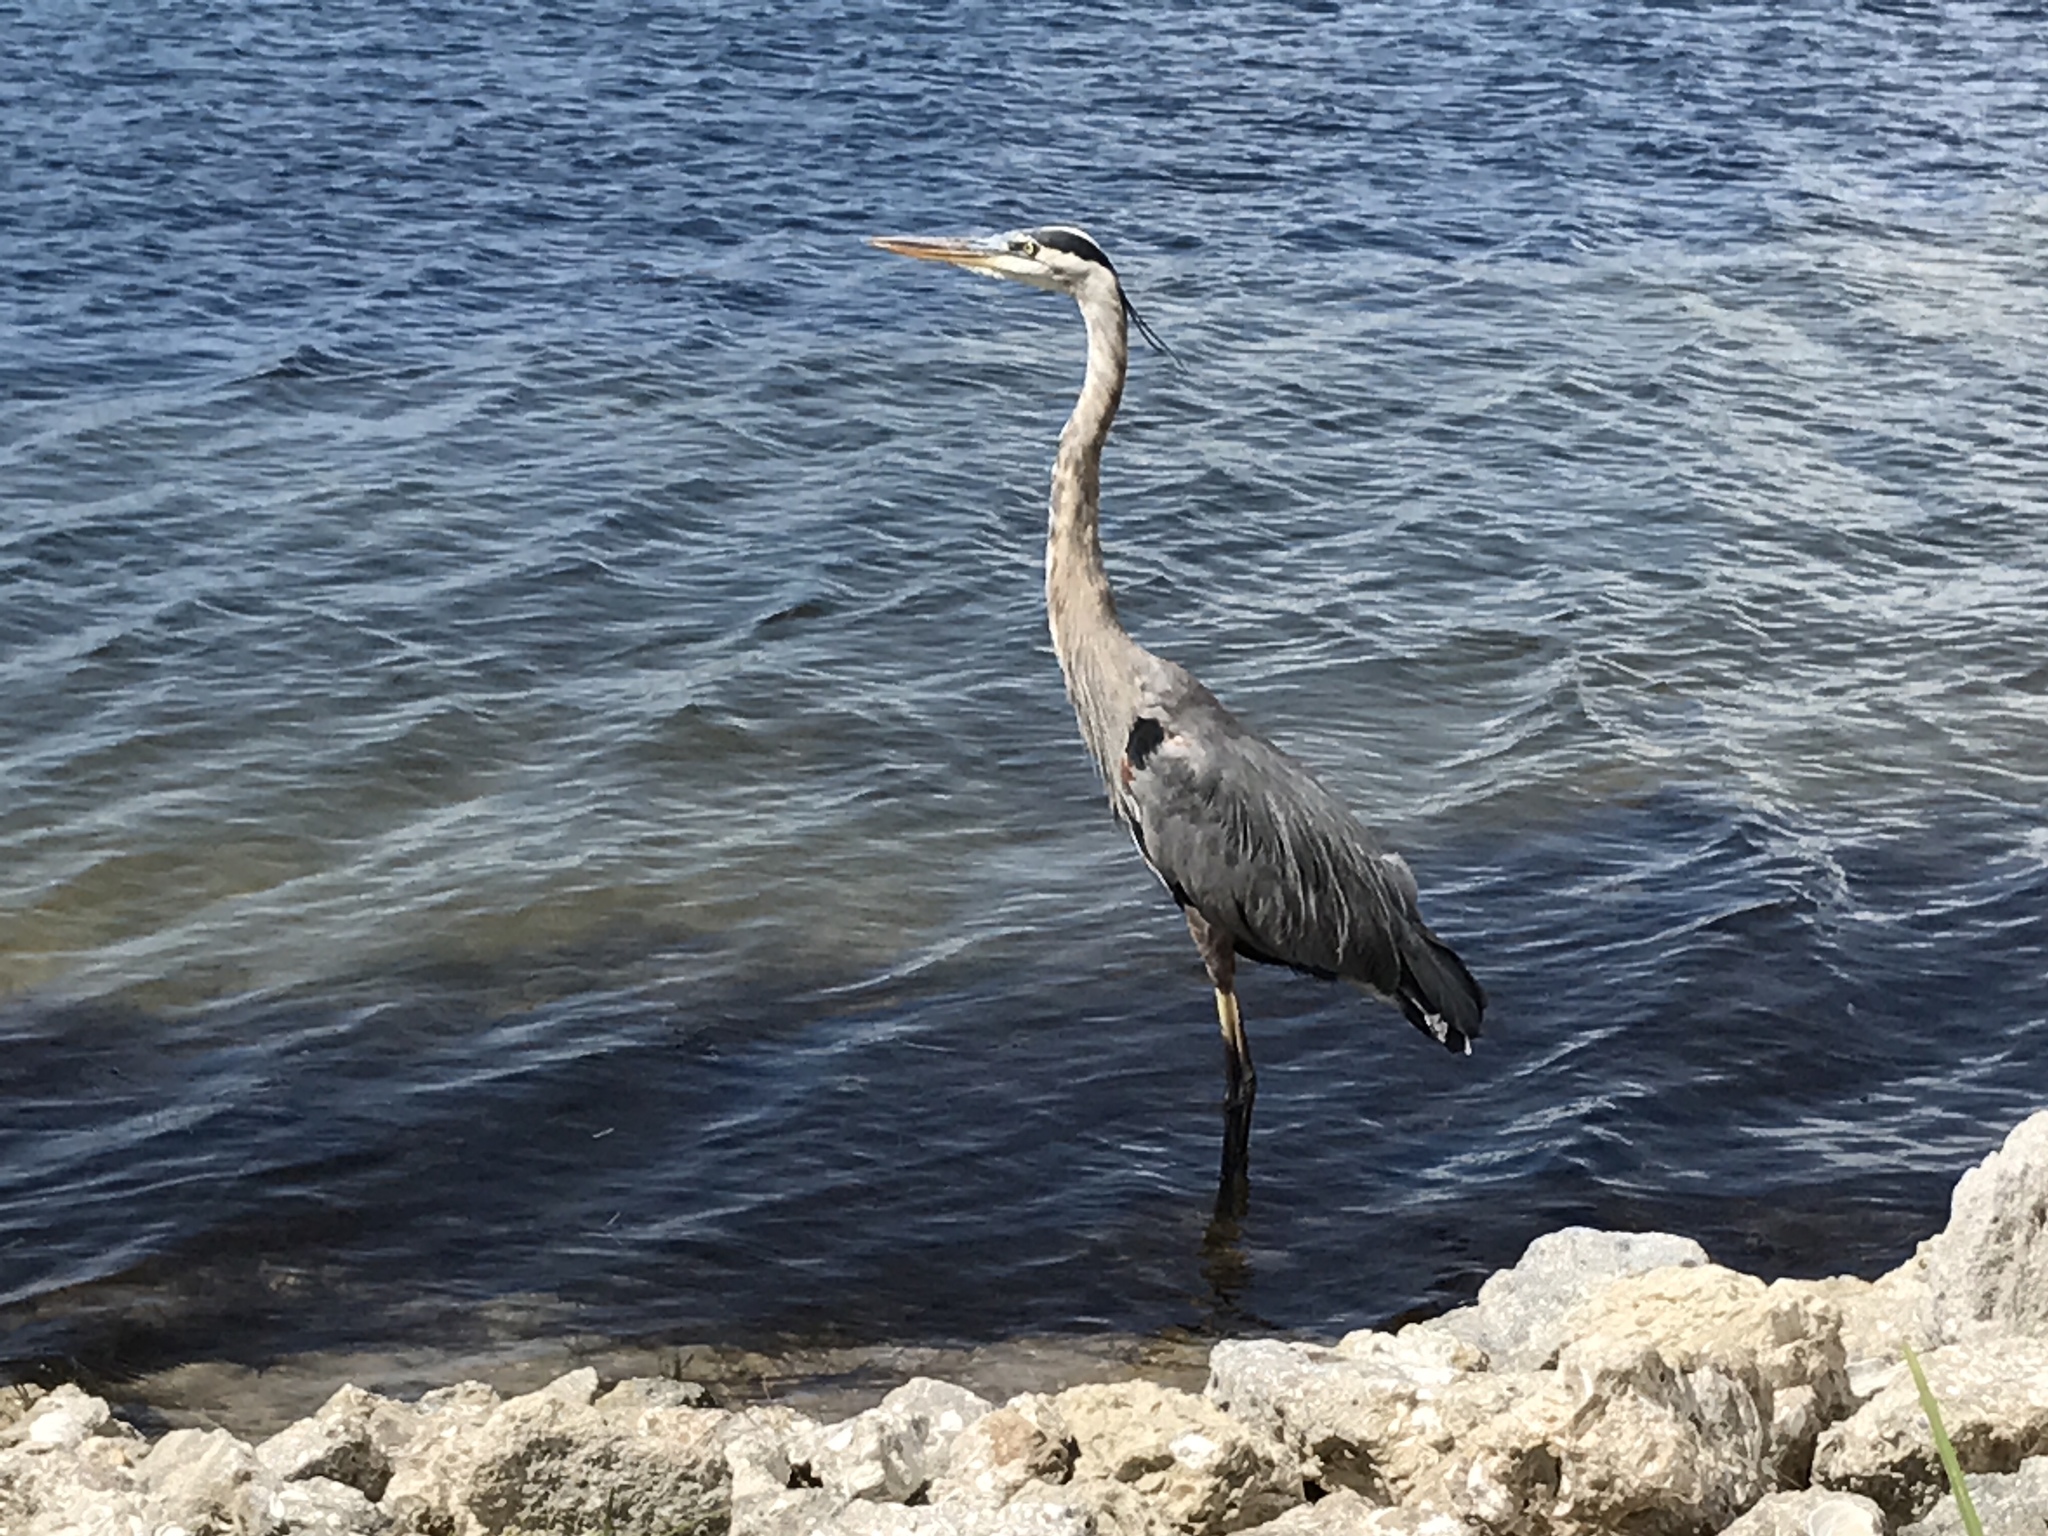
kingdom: Animalia
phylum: Chordata
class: Aves
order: Pelecaniformes
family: Ardeidae
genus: Ardea
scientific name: Ardea herodias
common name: Great blue heron
